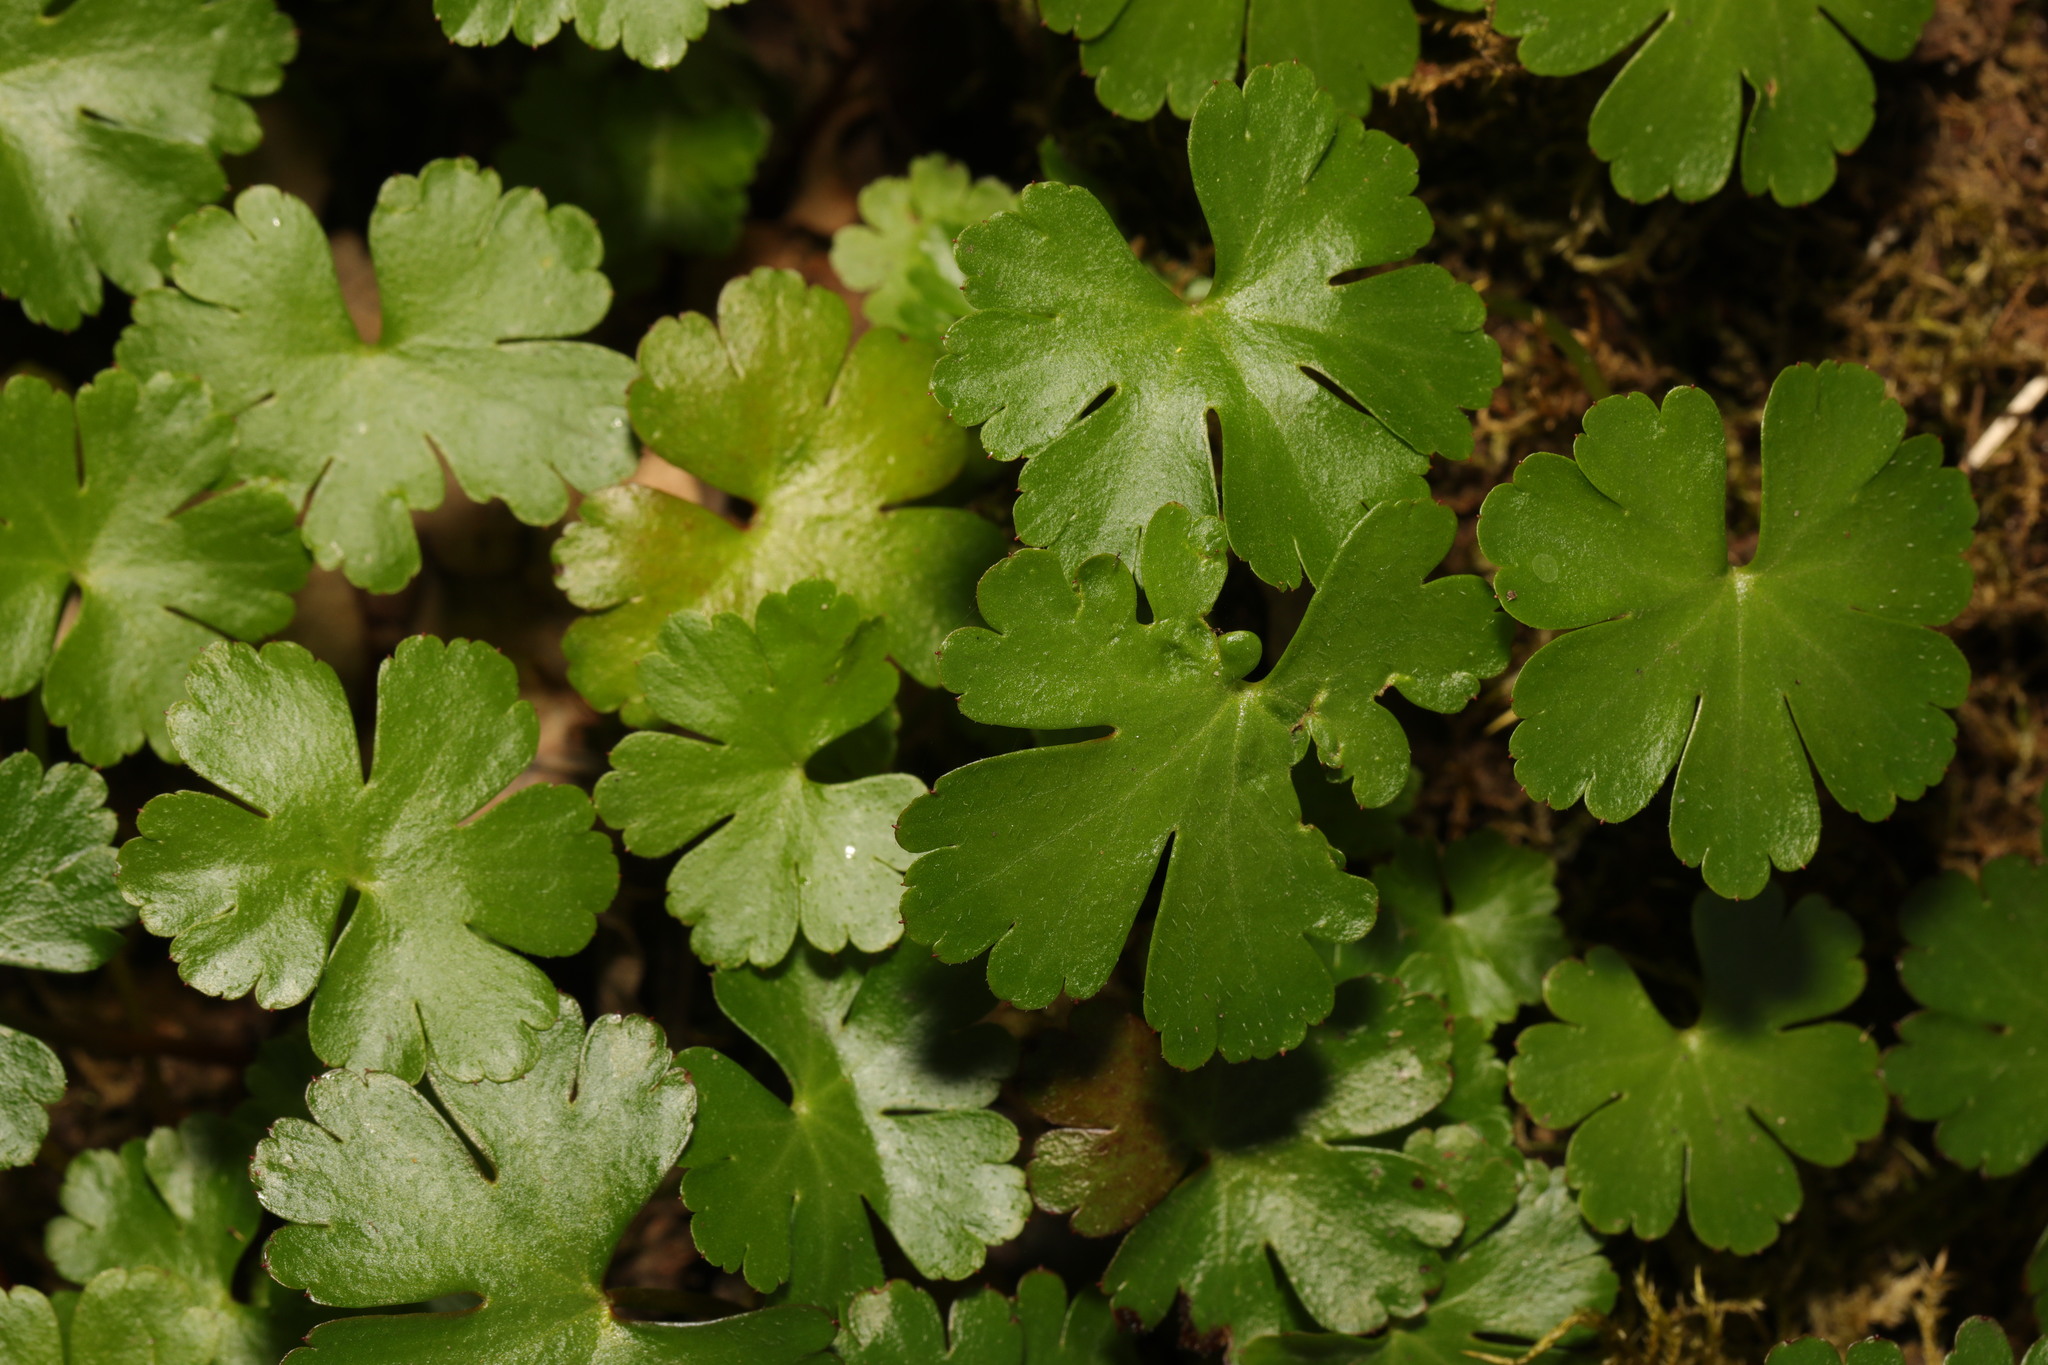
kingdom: Plantae
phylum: Tracheophyta
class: Magnoliopsida
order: Geraniales
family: Geraniaceae
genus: Geranium
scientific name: Geranium lucidum
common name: Shining crane's-bill
